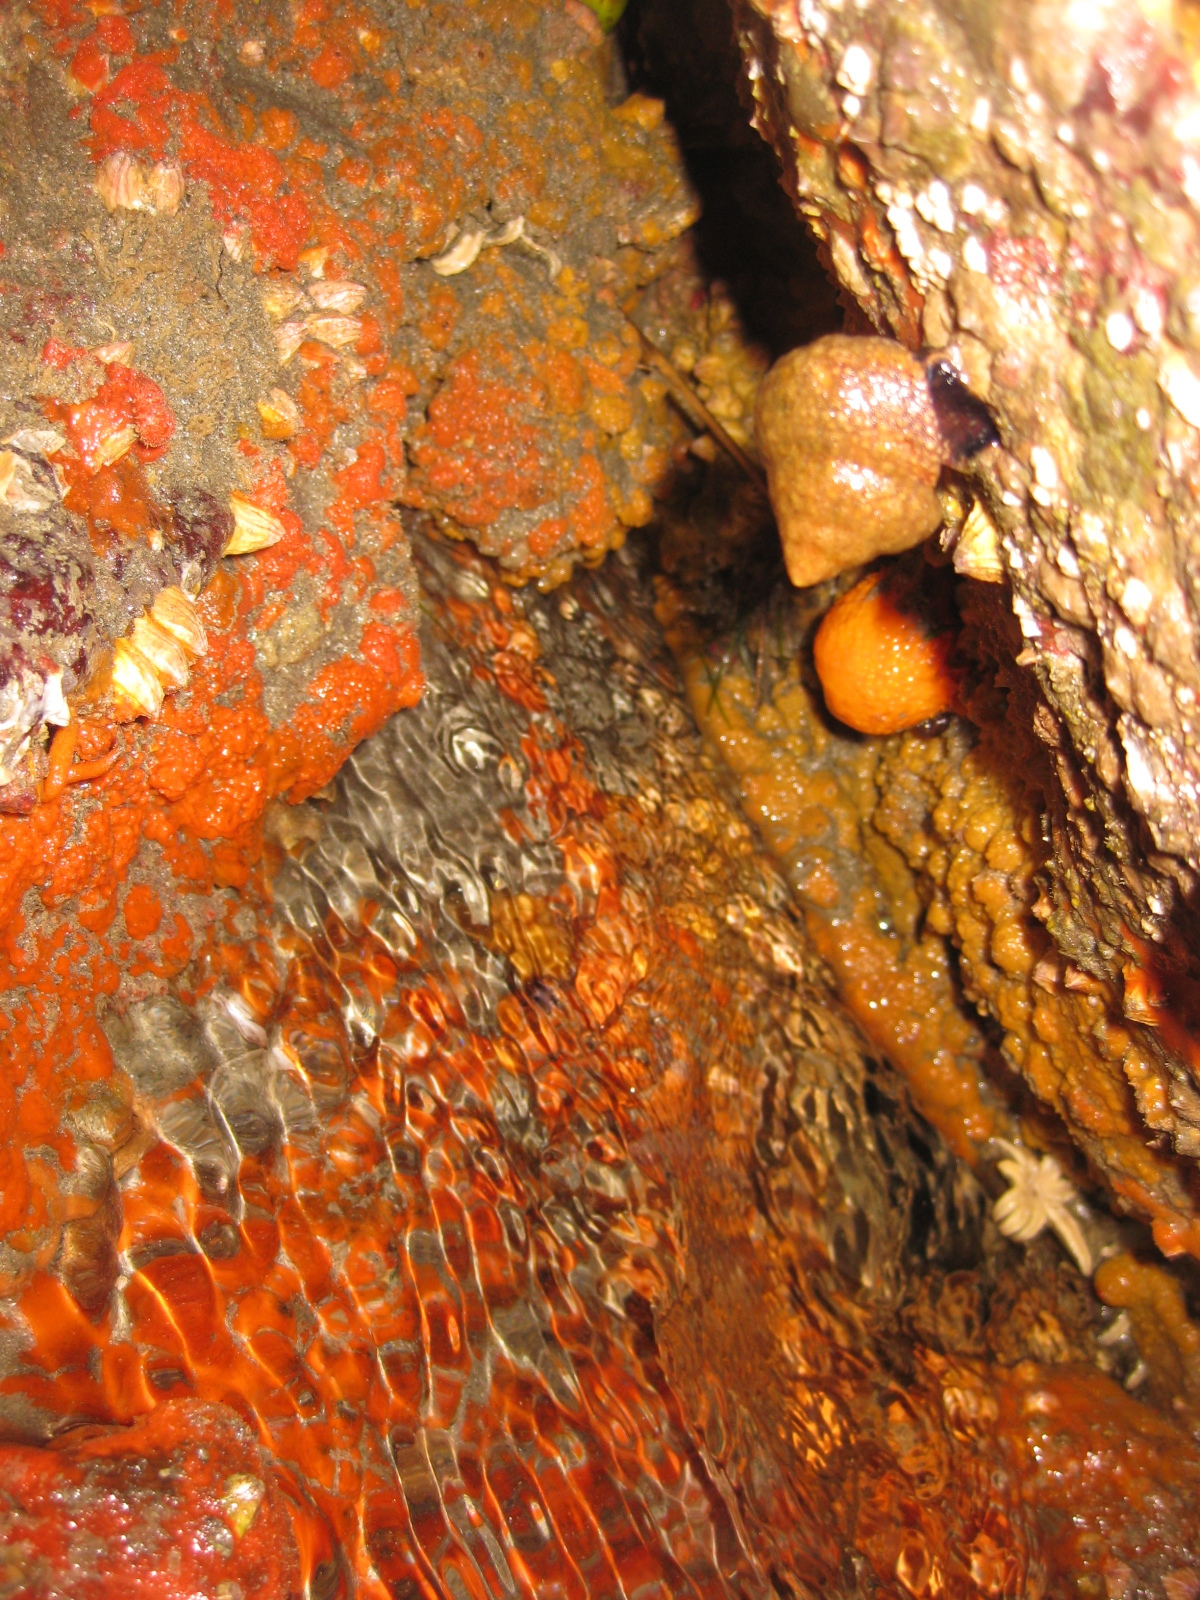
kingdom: Animalia
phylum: Echinodermata
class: Asteroidea
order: Forcipulatida
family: Stichasteridae
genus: Allostichaster
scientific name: Allostichaster polyplax
